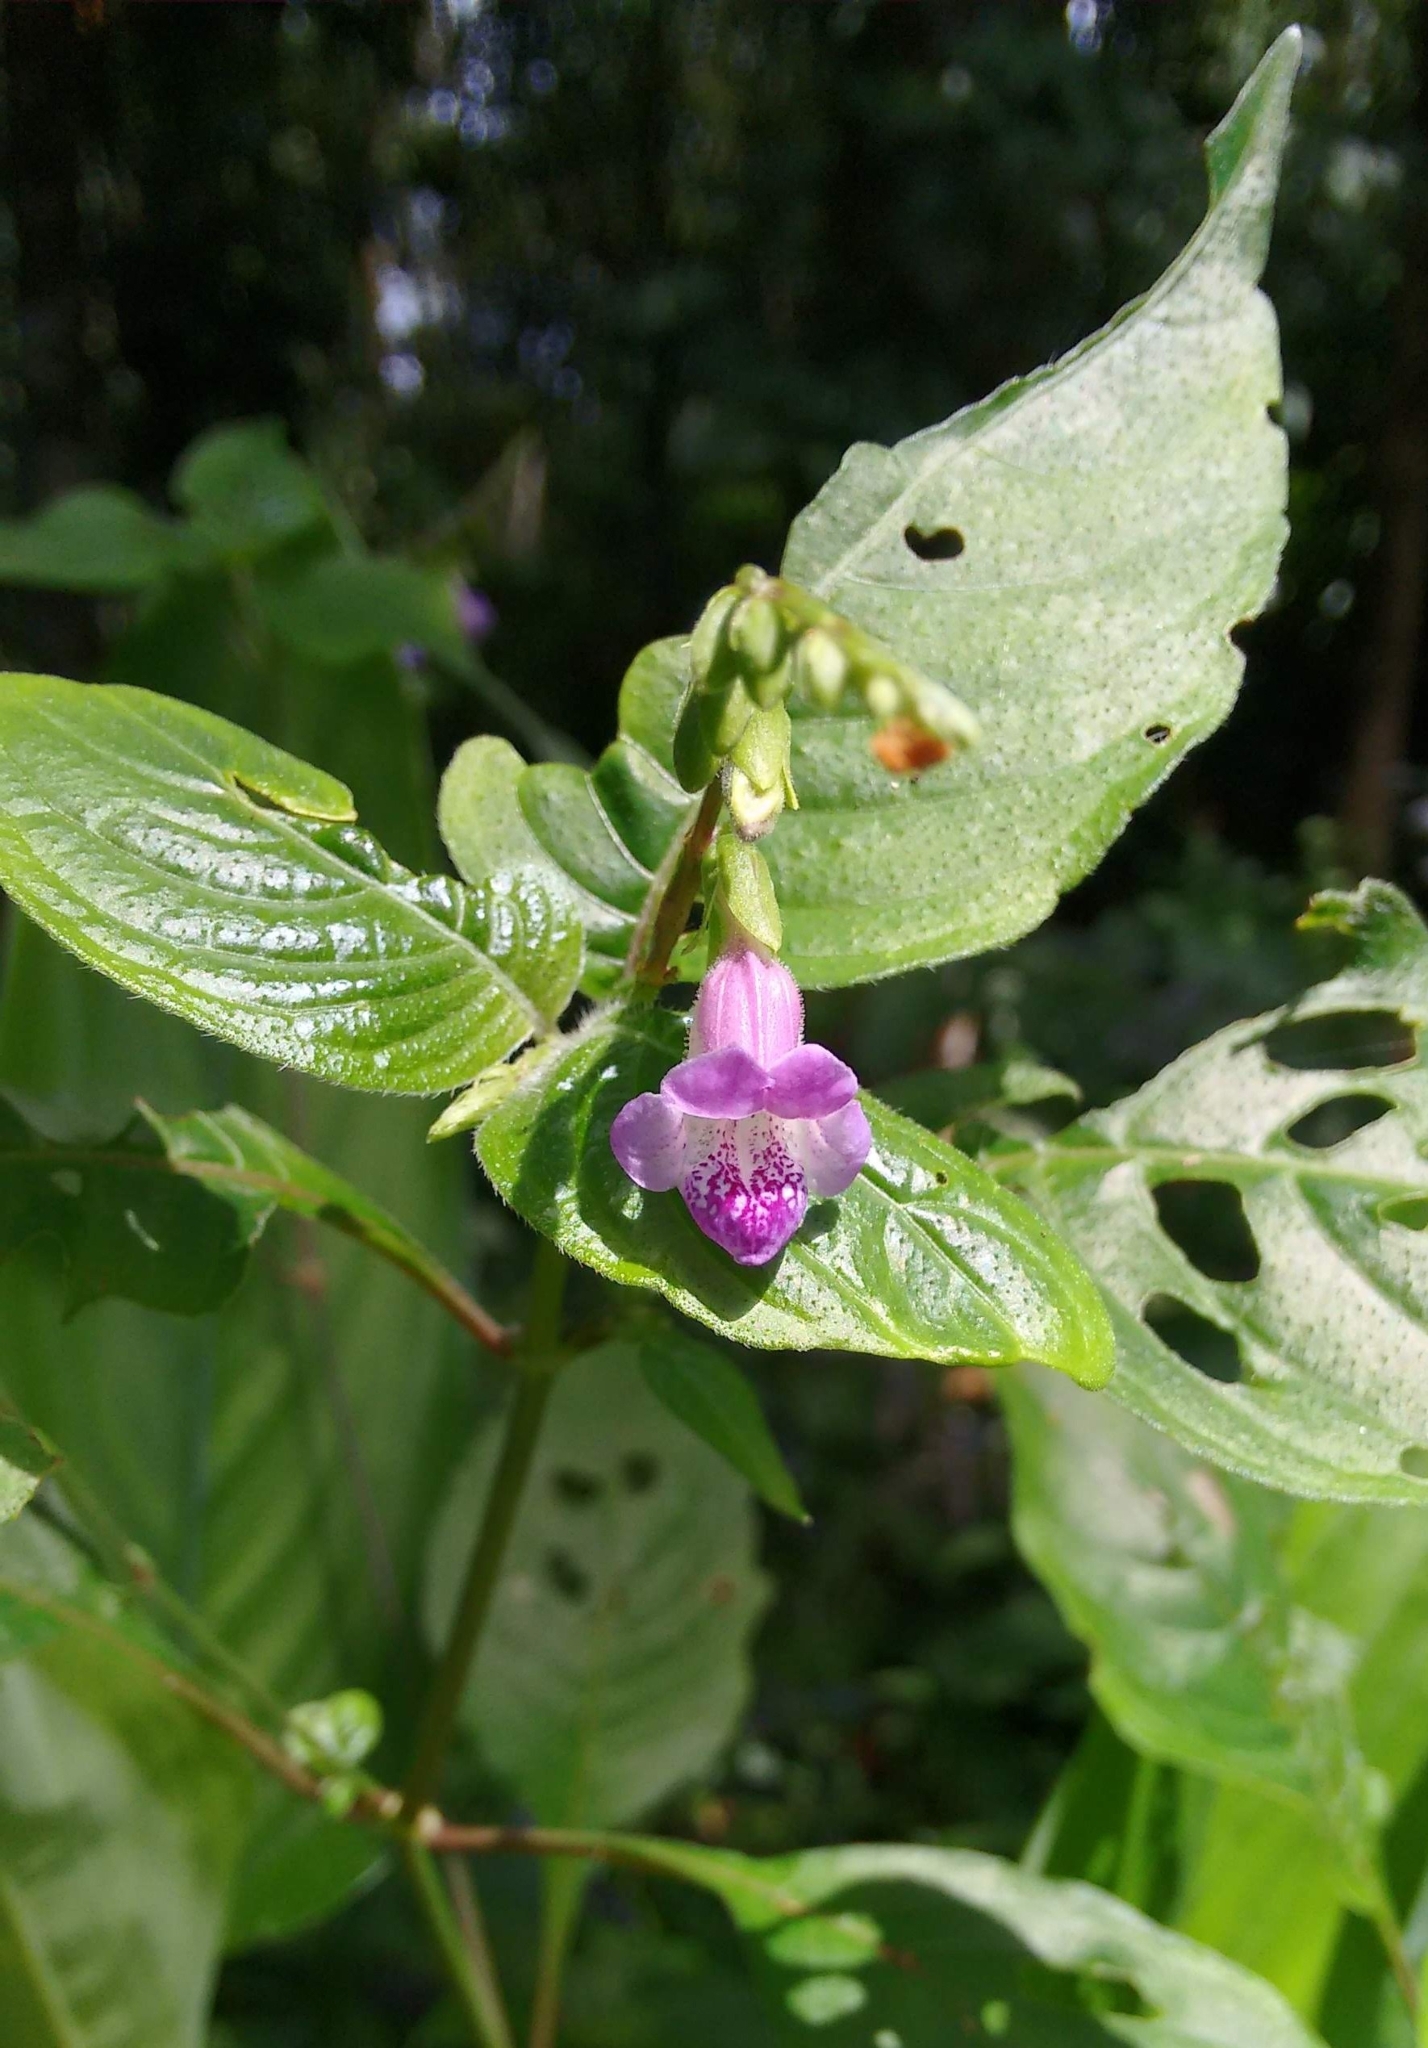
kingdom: Plantae
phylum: Tracheophyta
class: Magnoliopsida
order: Lamiales
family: Acanthaceae
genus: Asystasia
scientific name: Asystasia dalzelliana
